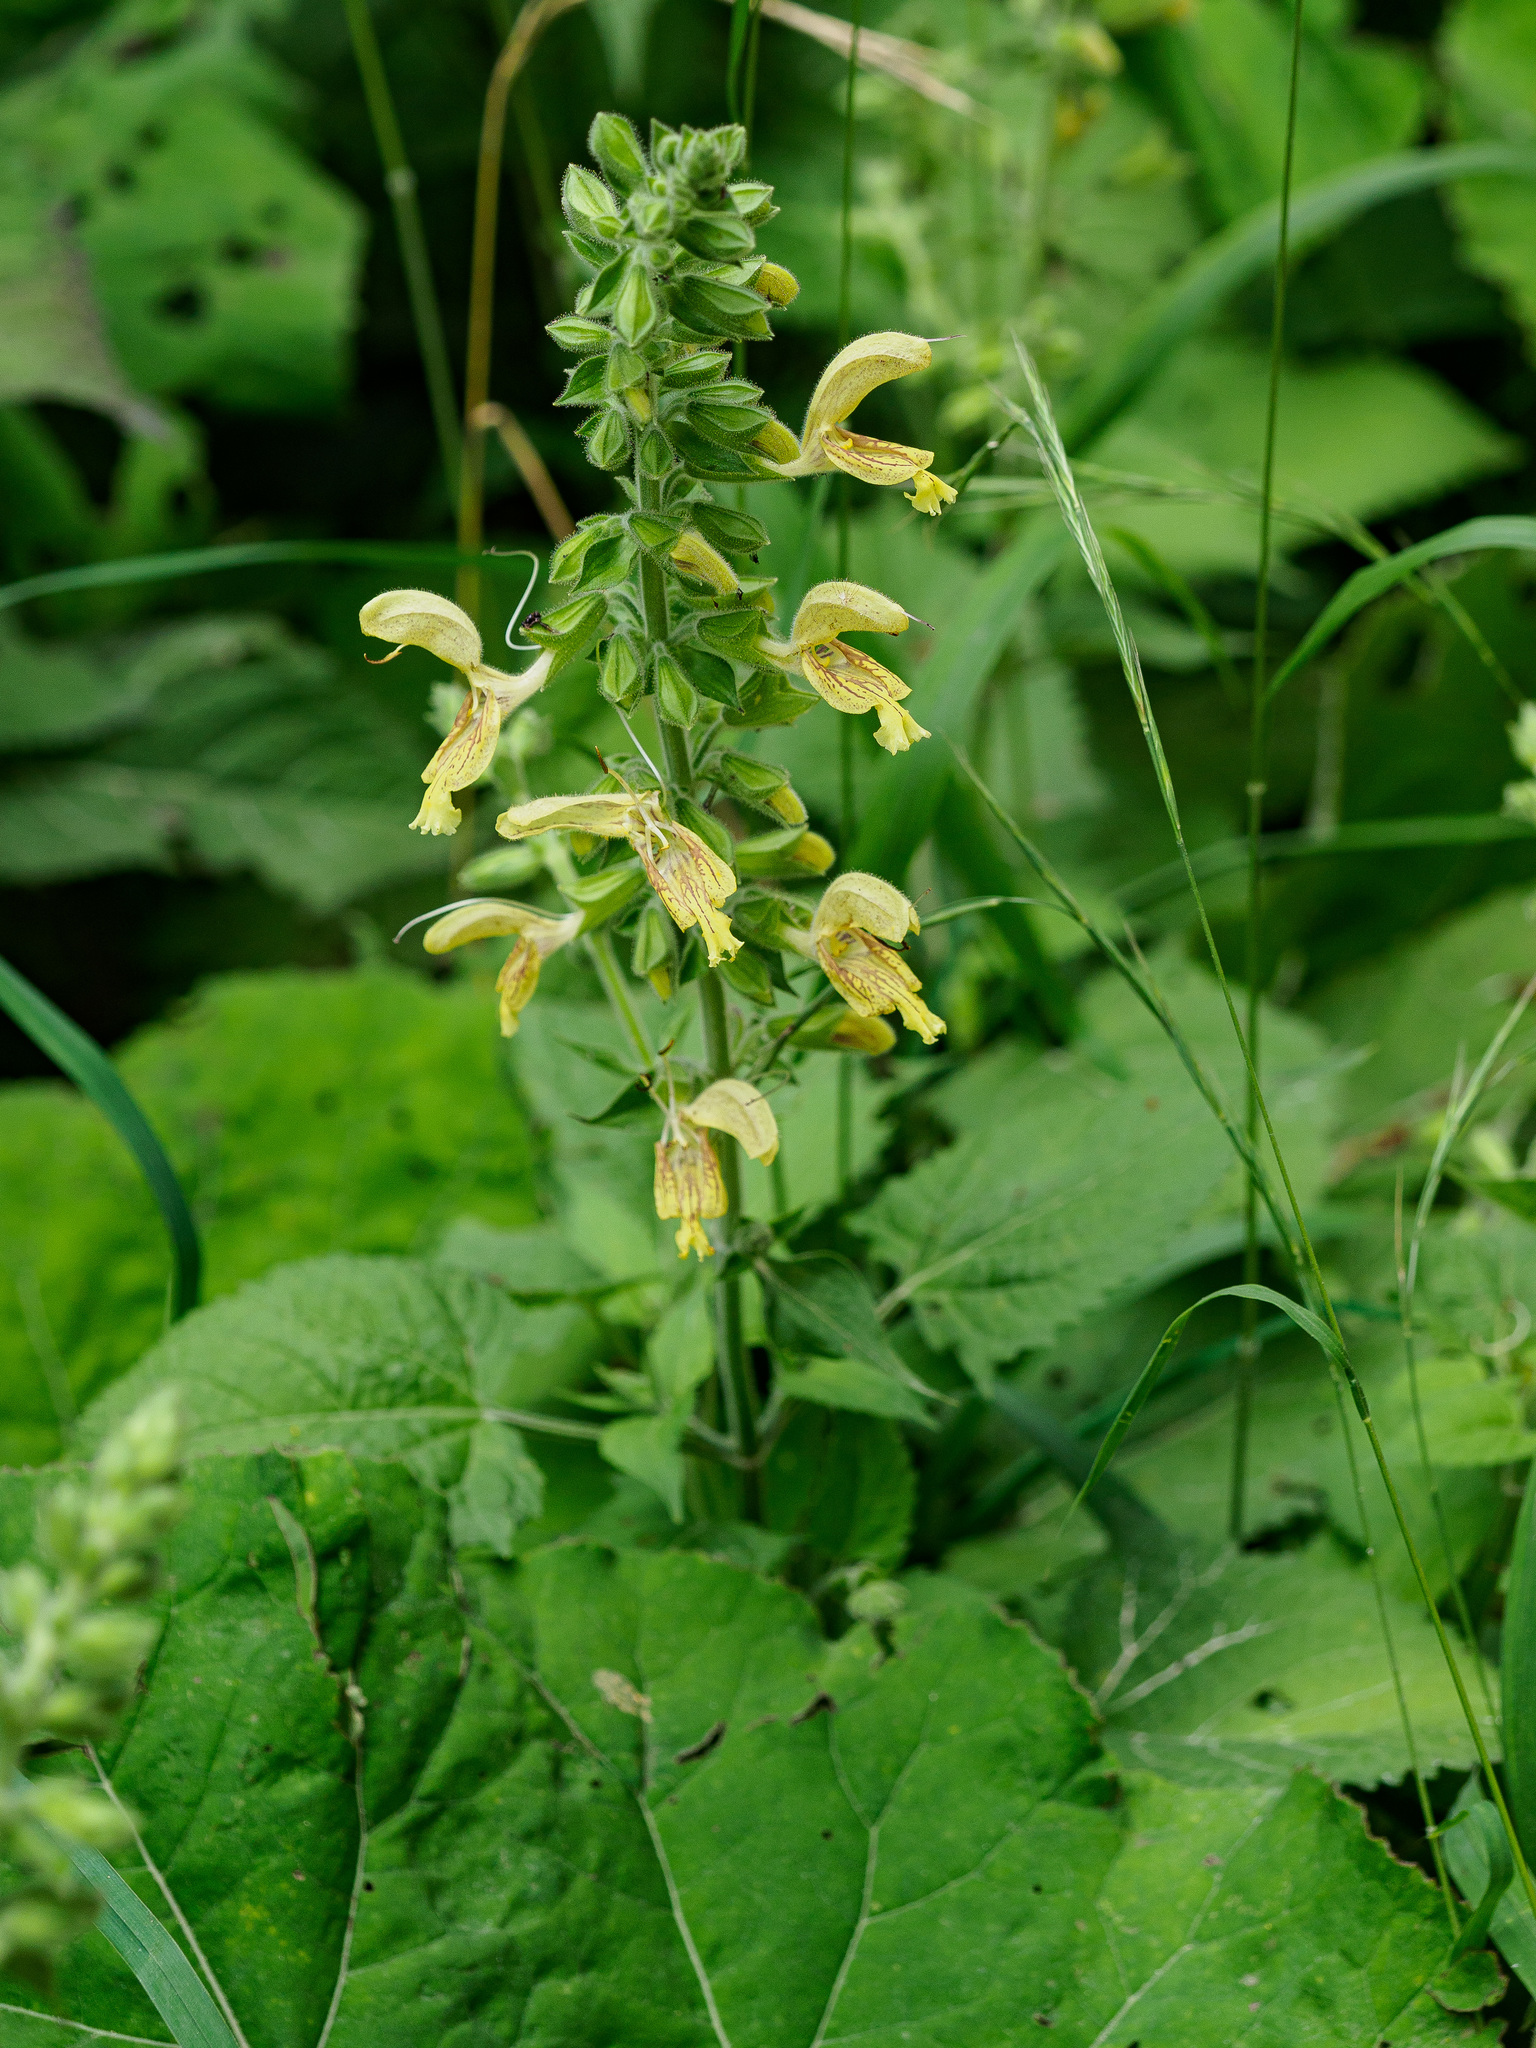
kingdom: Plantae
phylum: Tracheophyta
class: Magnoliopsida
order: Lamiales
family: Lamiaceae
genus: Salvia
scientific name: Salvia glutinosa
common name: Sticky clary
